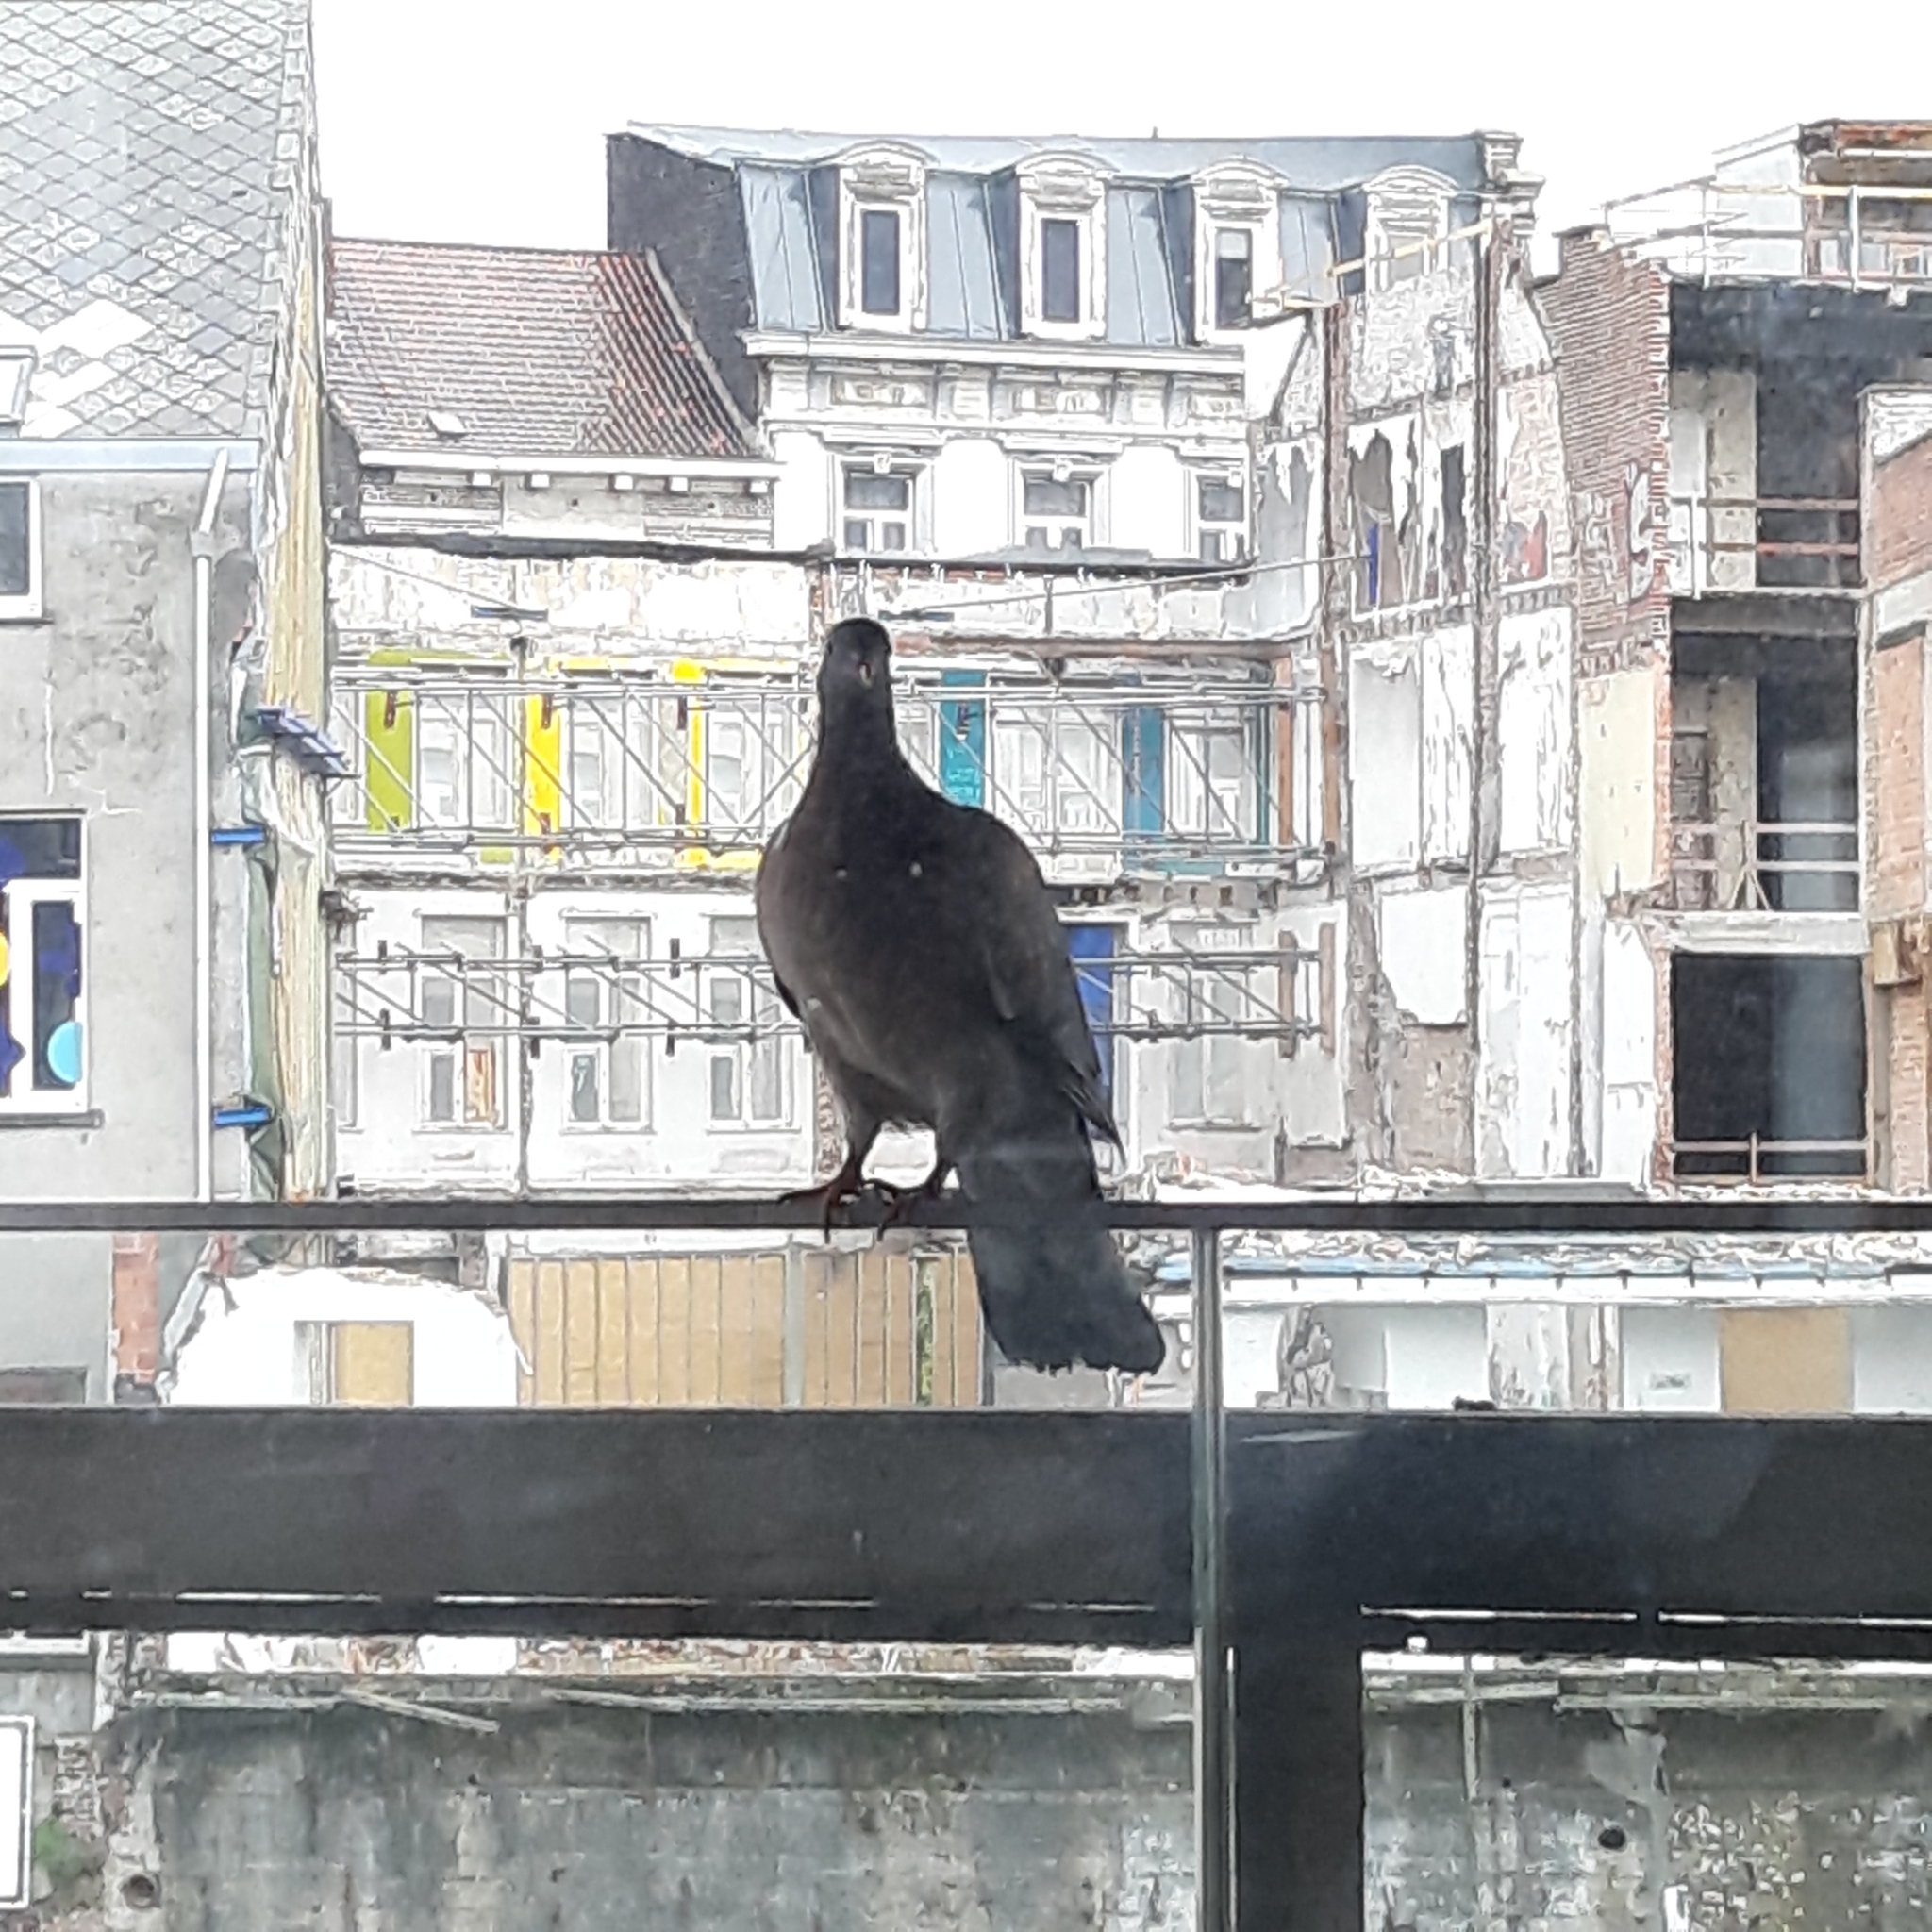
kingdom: Animalia
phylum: Chordata
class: Aves
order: Columbiformes
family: Columbidae
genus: Columba
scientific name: Columba palumbus
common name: Common wood pigeon
